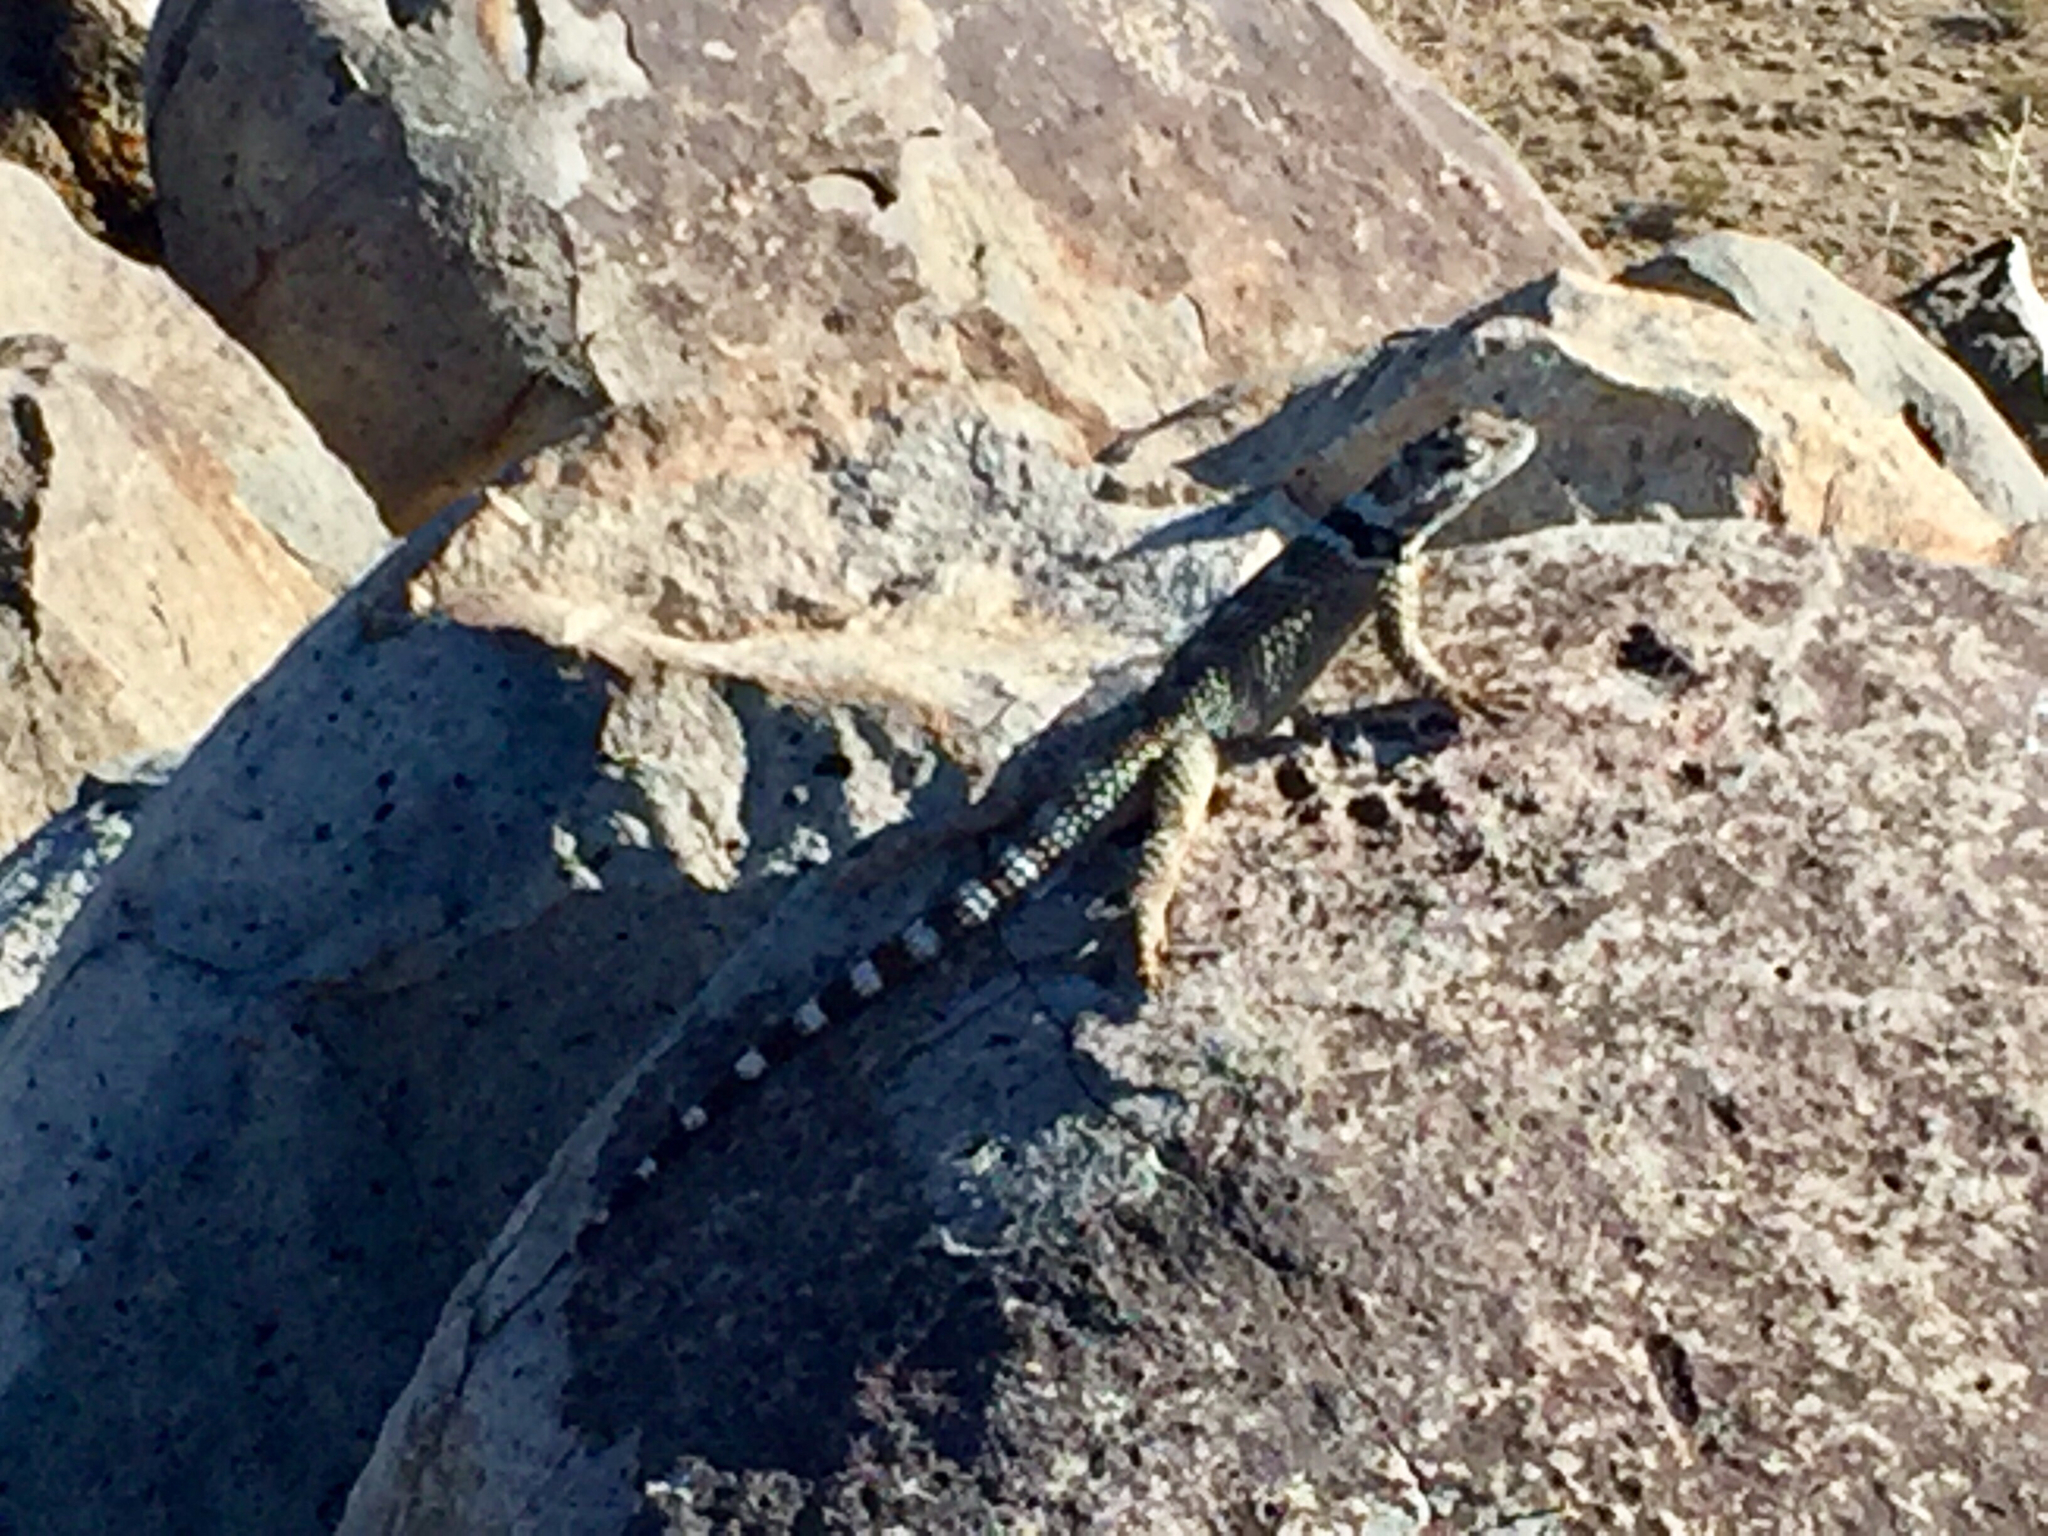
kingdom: Animalia
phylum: Chordata
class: Squamata
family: Phrynosomatidae
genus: Sceloporus
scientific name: Sceloporus poinsettii
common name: Crevice spiny lizard
